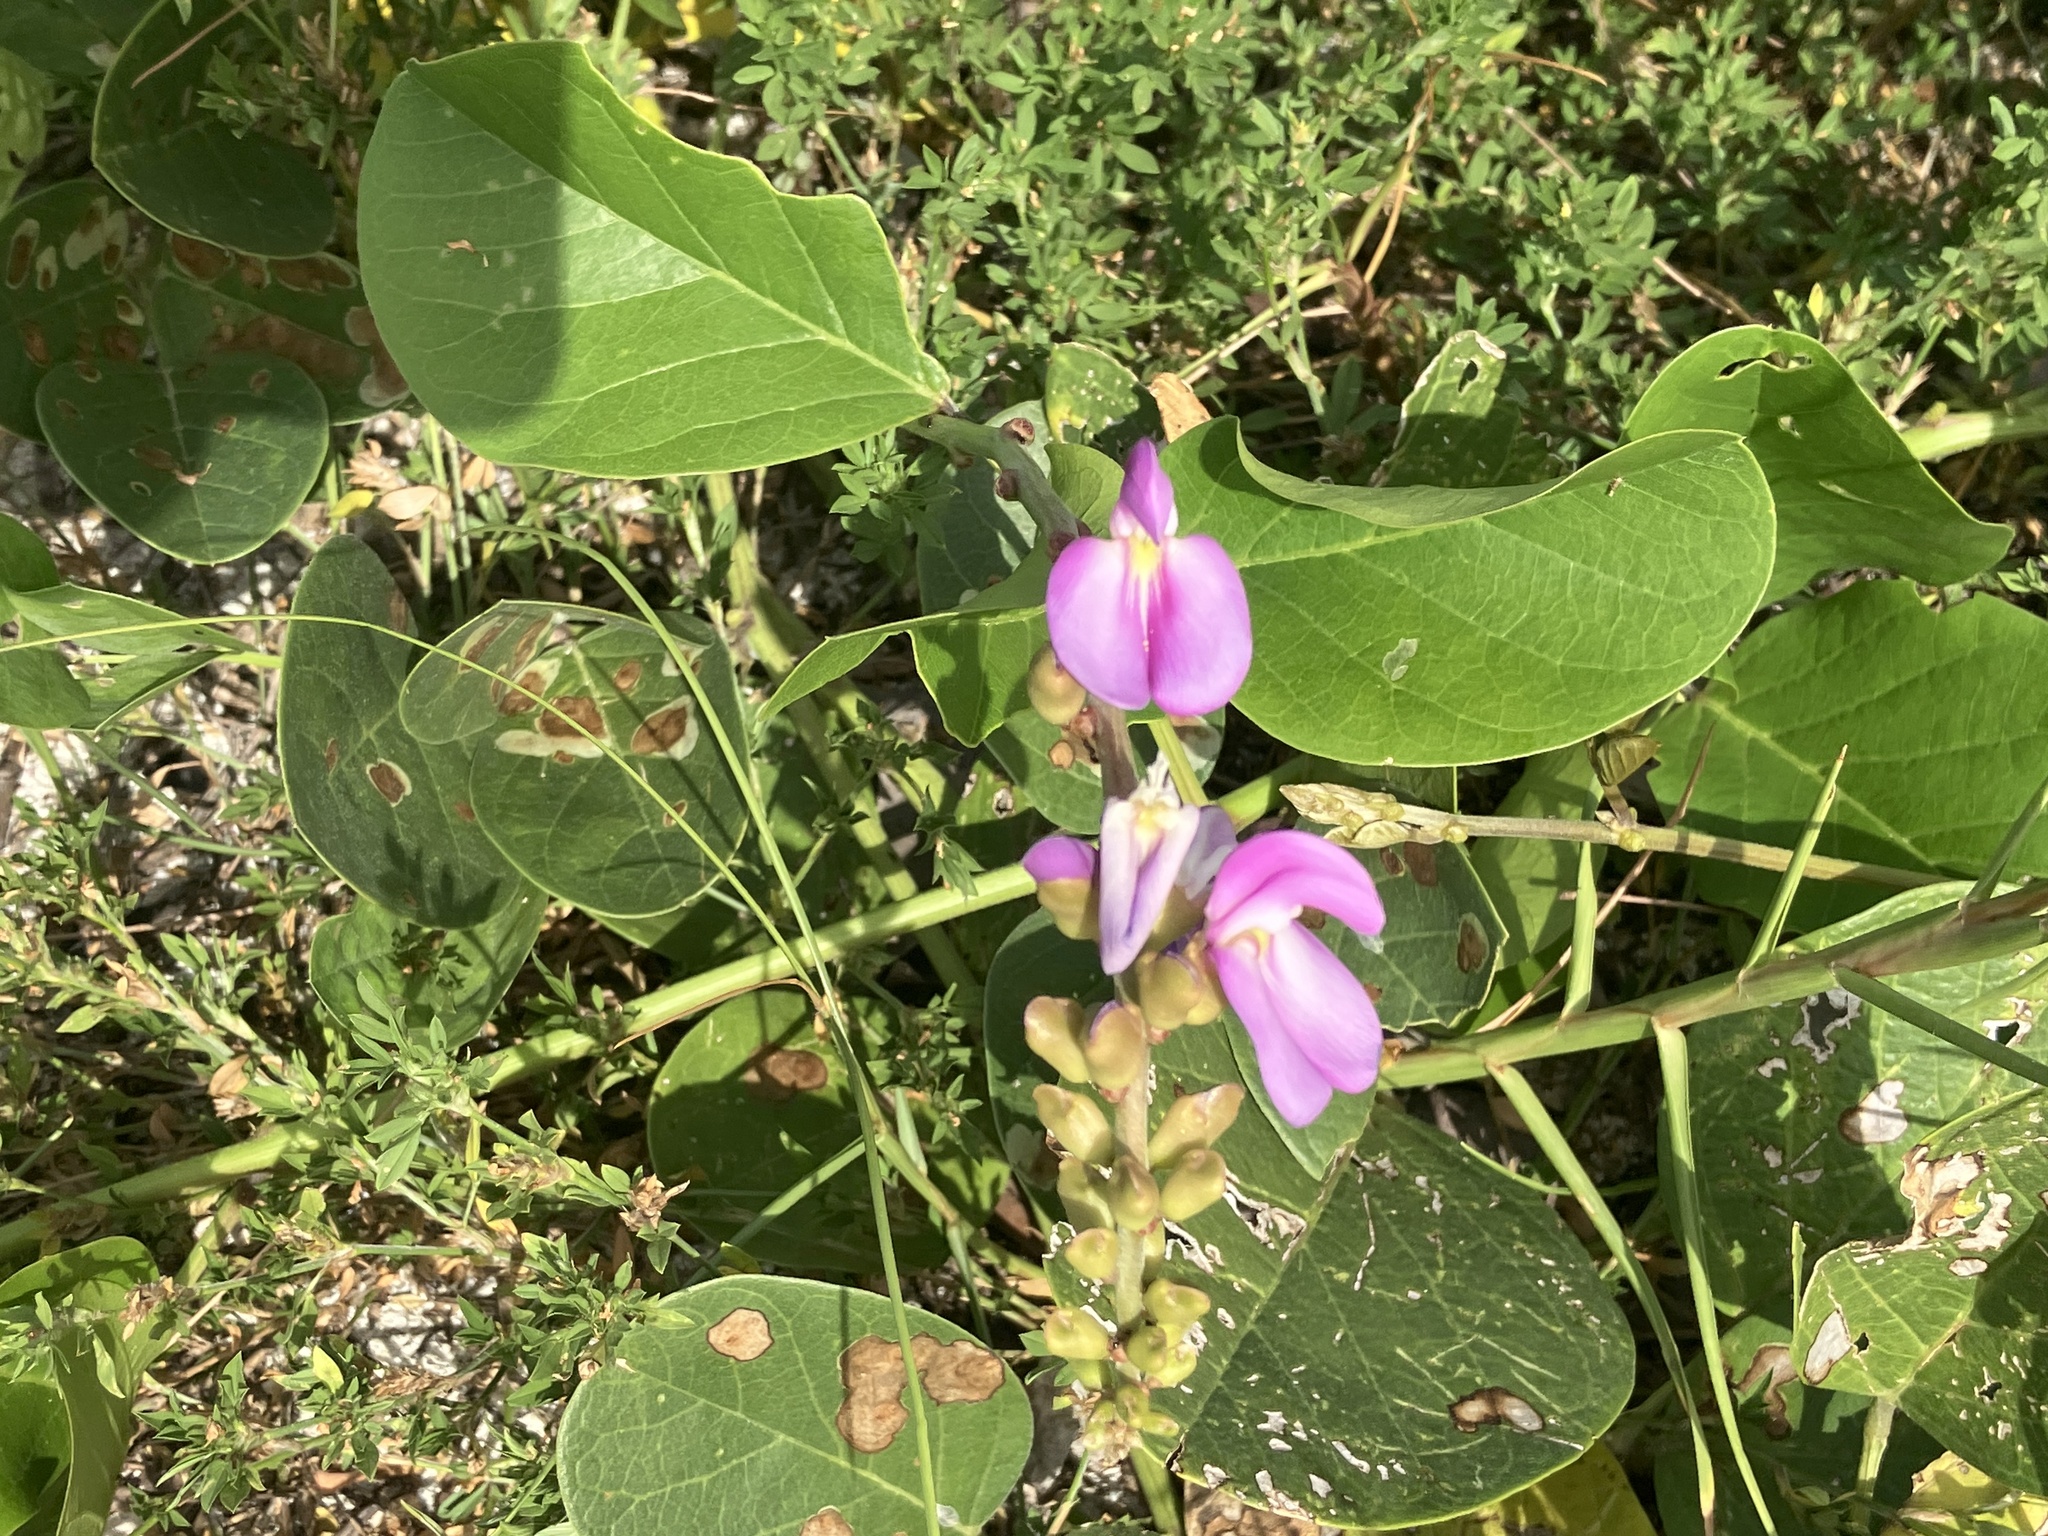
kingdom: Plantae
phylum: Tracheophyta
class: Magnoliopsida
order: Fabales
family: Fabaceae
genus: Canavalia
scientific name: Canavalia rosea
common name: Beach-bean
